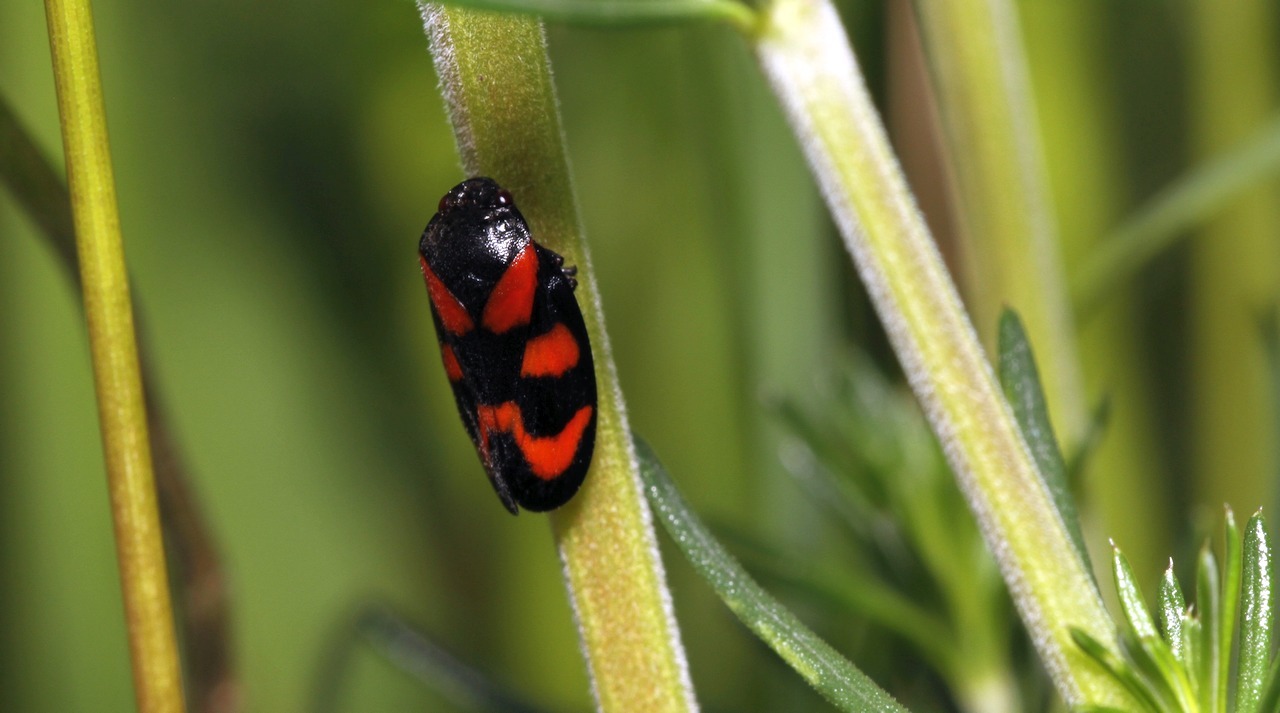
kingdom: Animalia
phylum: Arthropoda
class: Insecta
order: Hemiptera
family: Cercopidae
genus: Cercopis
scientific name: Cercopis vulnerata
